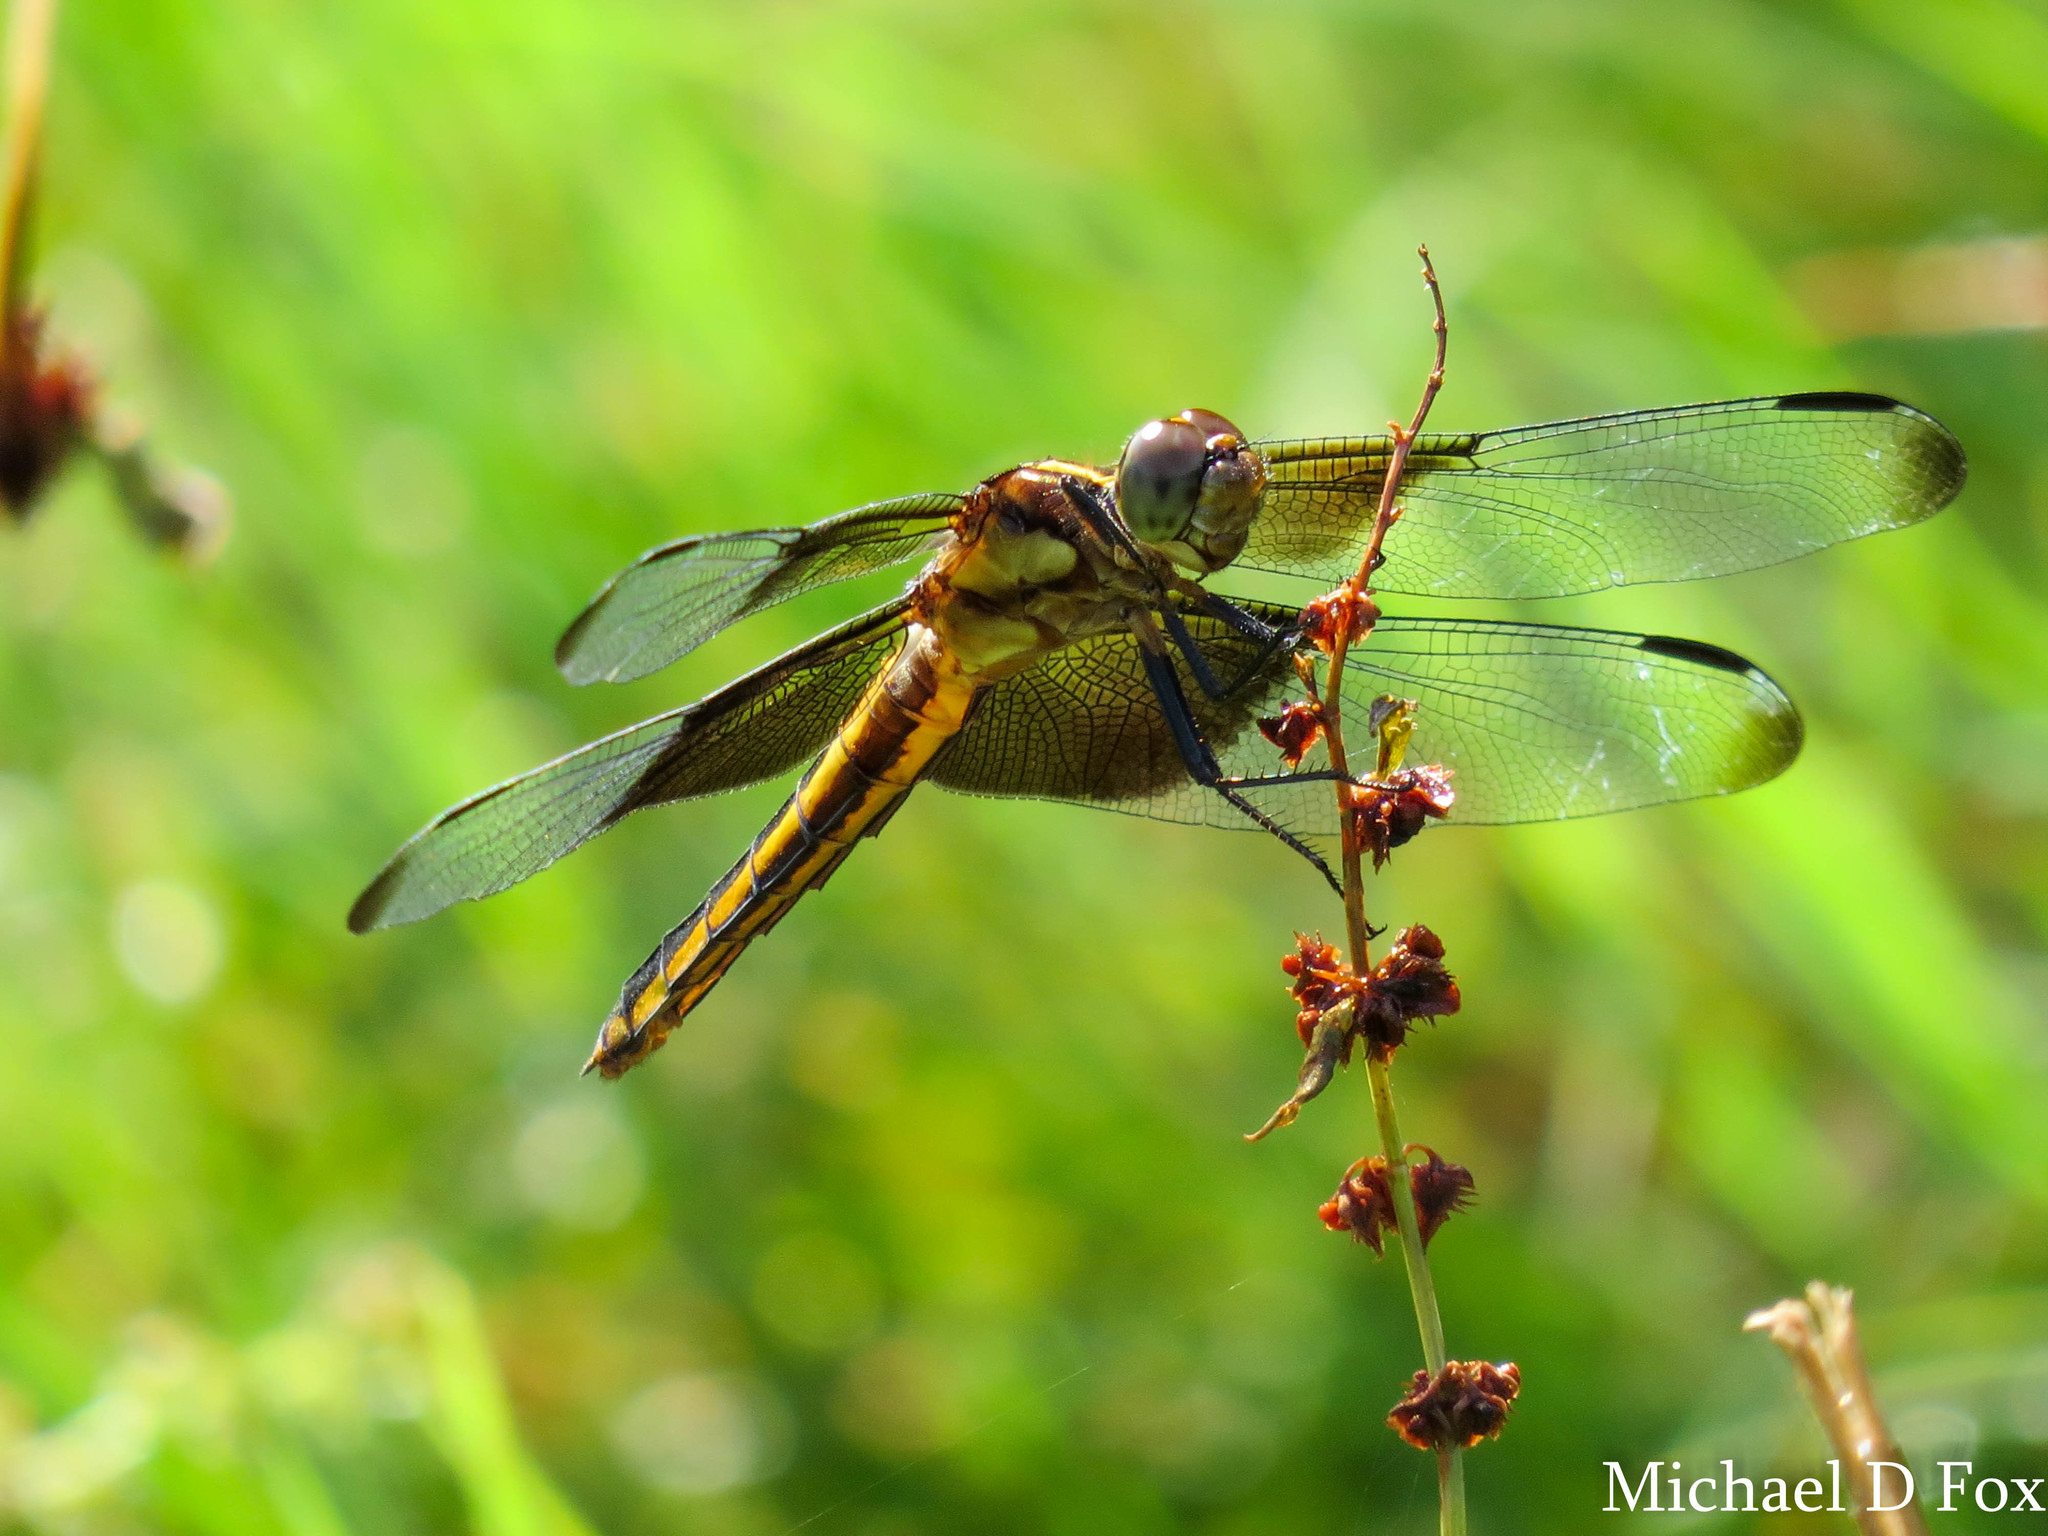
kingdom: Animalia
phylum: Arthropoda
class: Insecta
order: Odonata
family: Libellulidae
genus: Libellula
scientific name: Libellula luctuosa
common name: Widow skimmer
